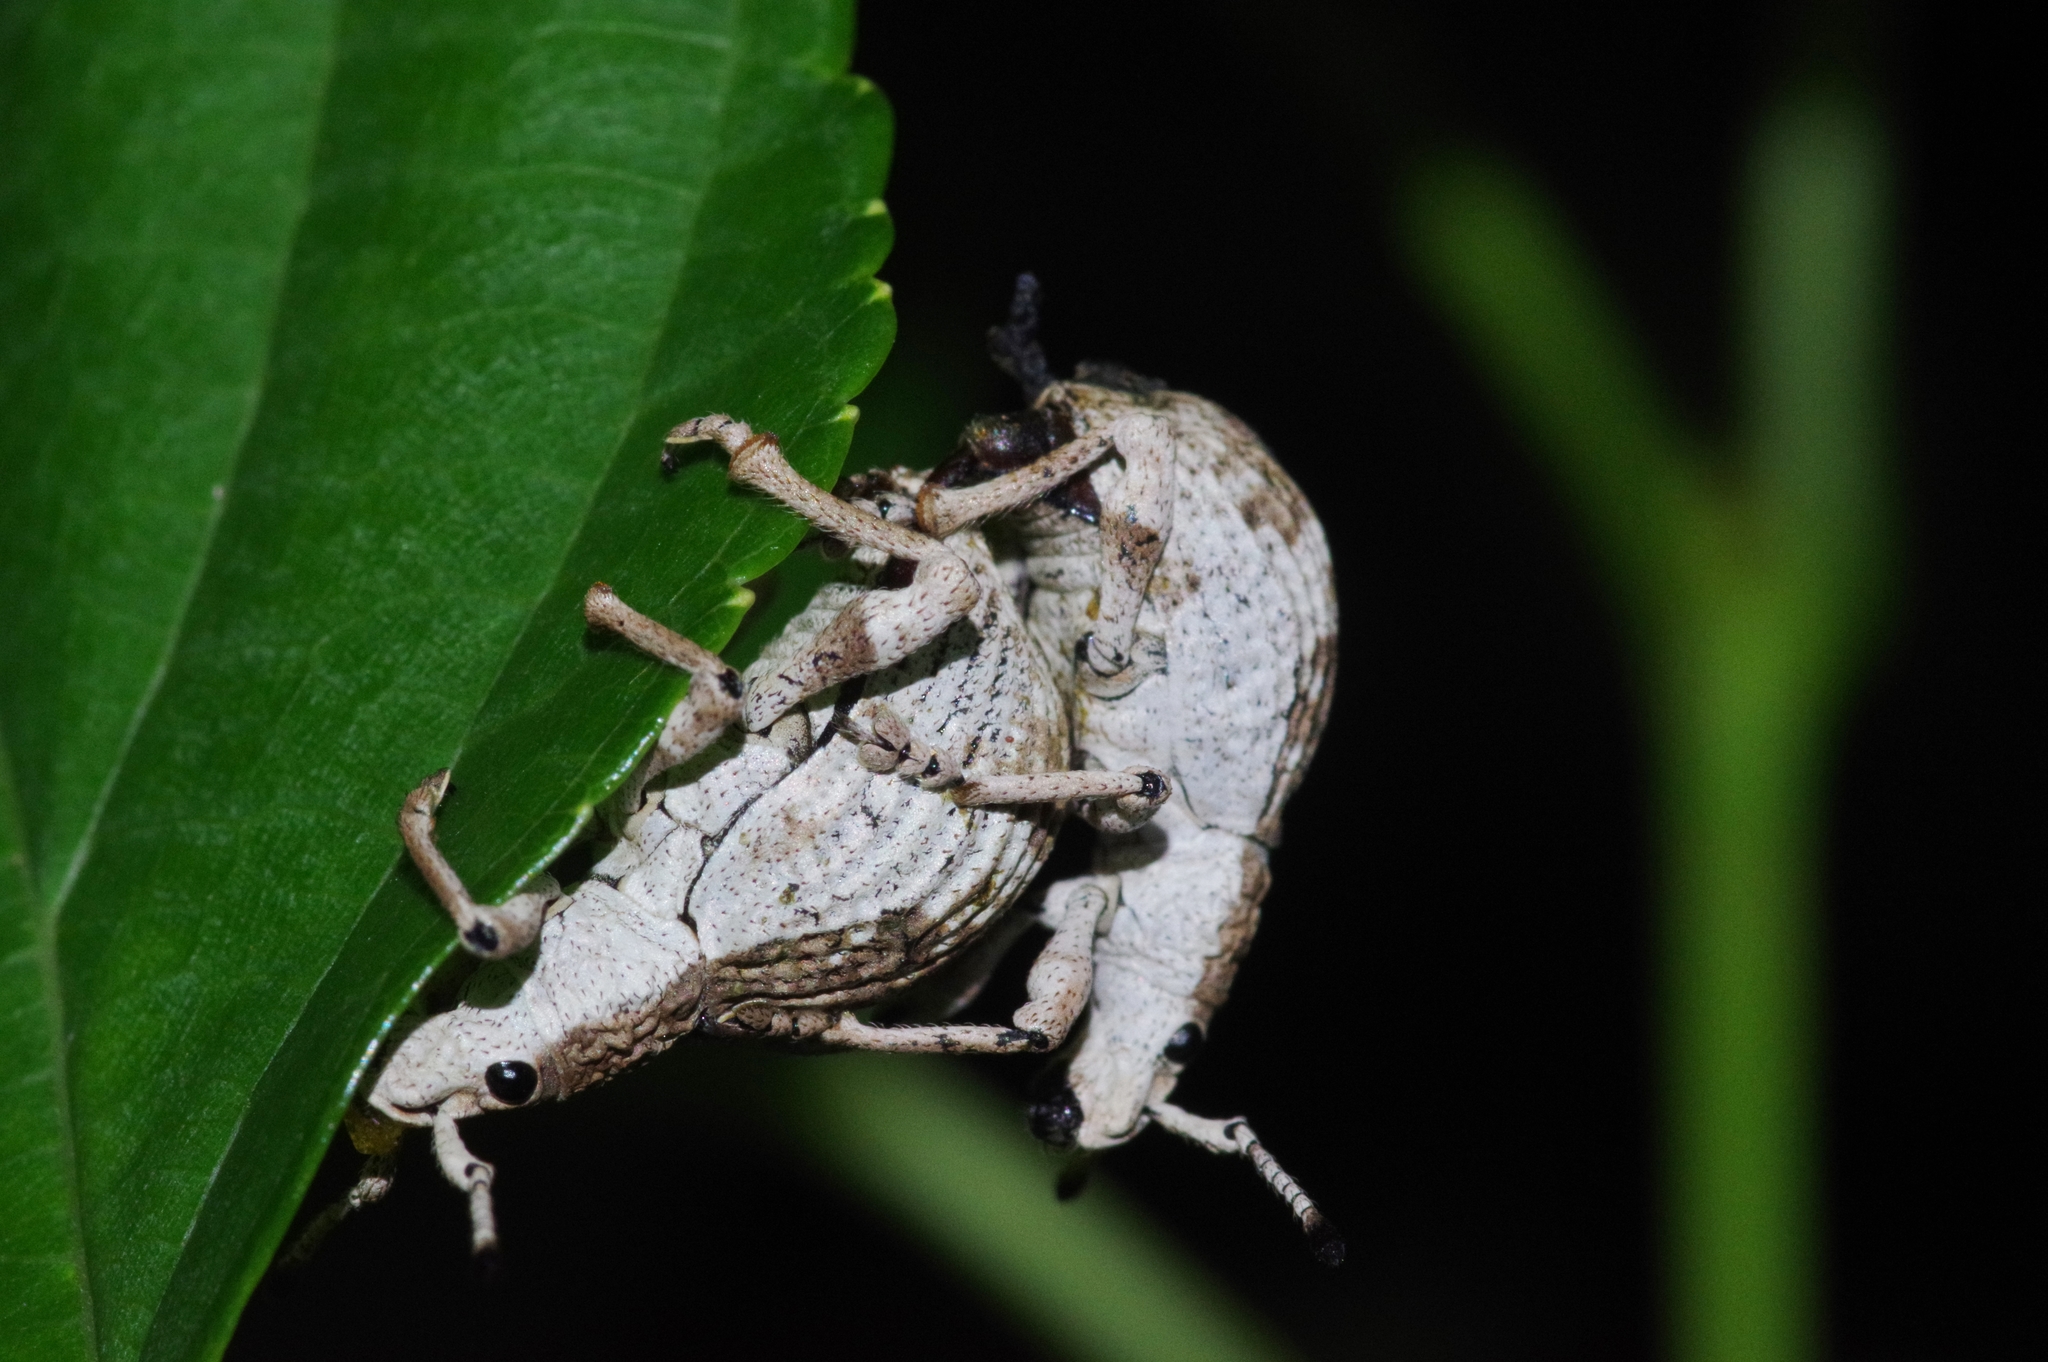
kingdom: Animalia
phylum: Arthropoda
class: Insecta
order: Coleoptera
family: Curculionidae
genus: Episomus
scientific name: Episomus mori
